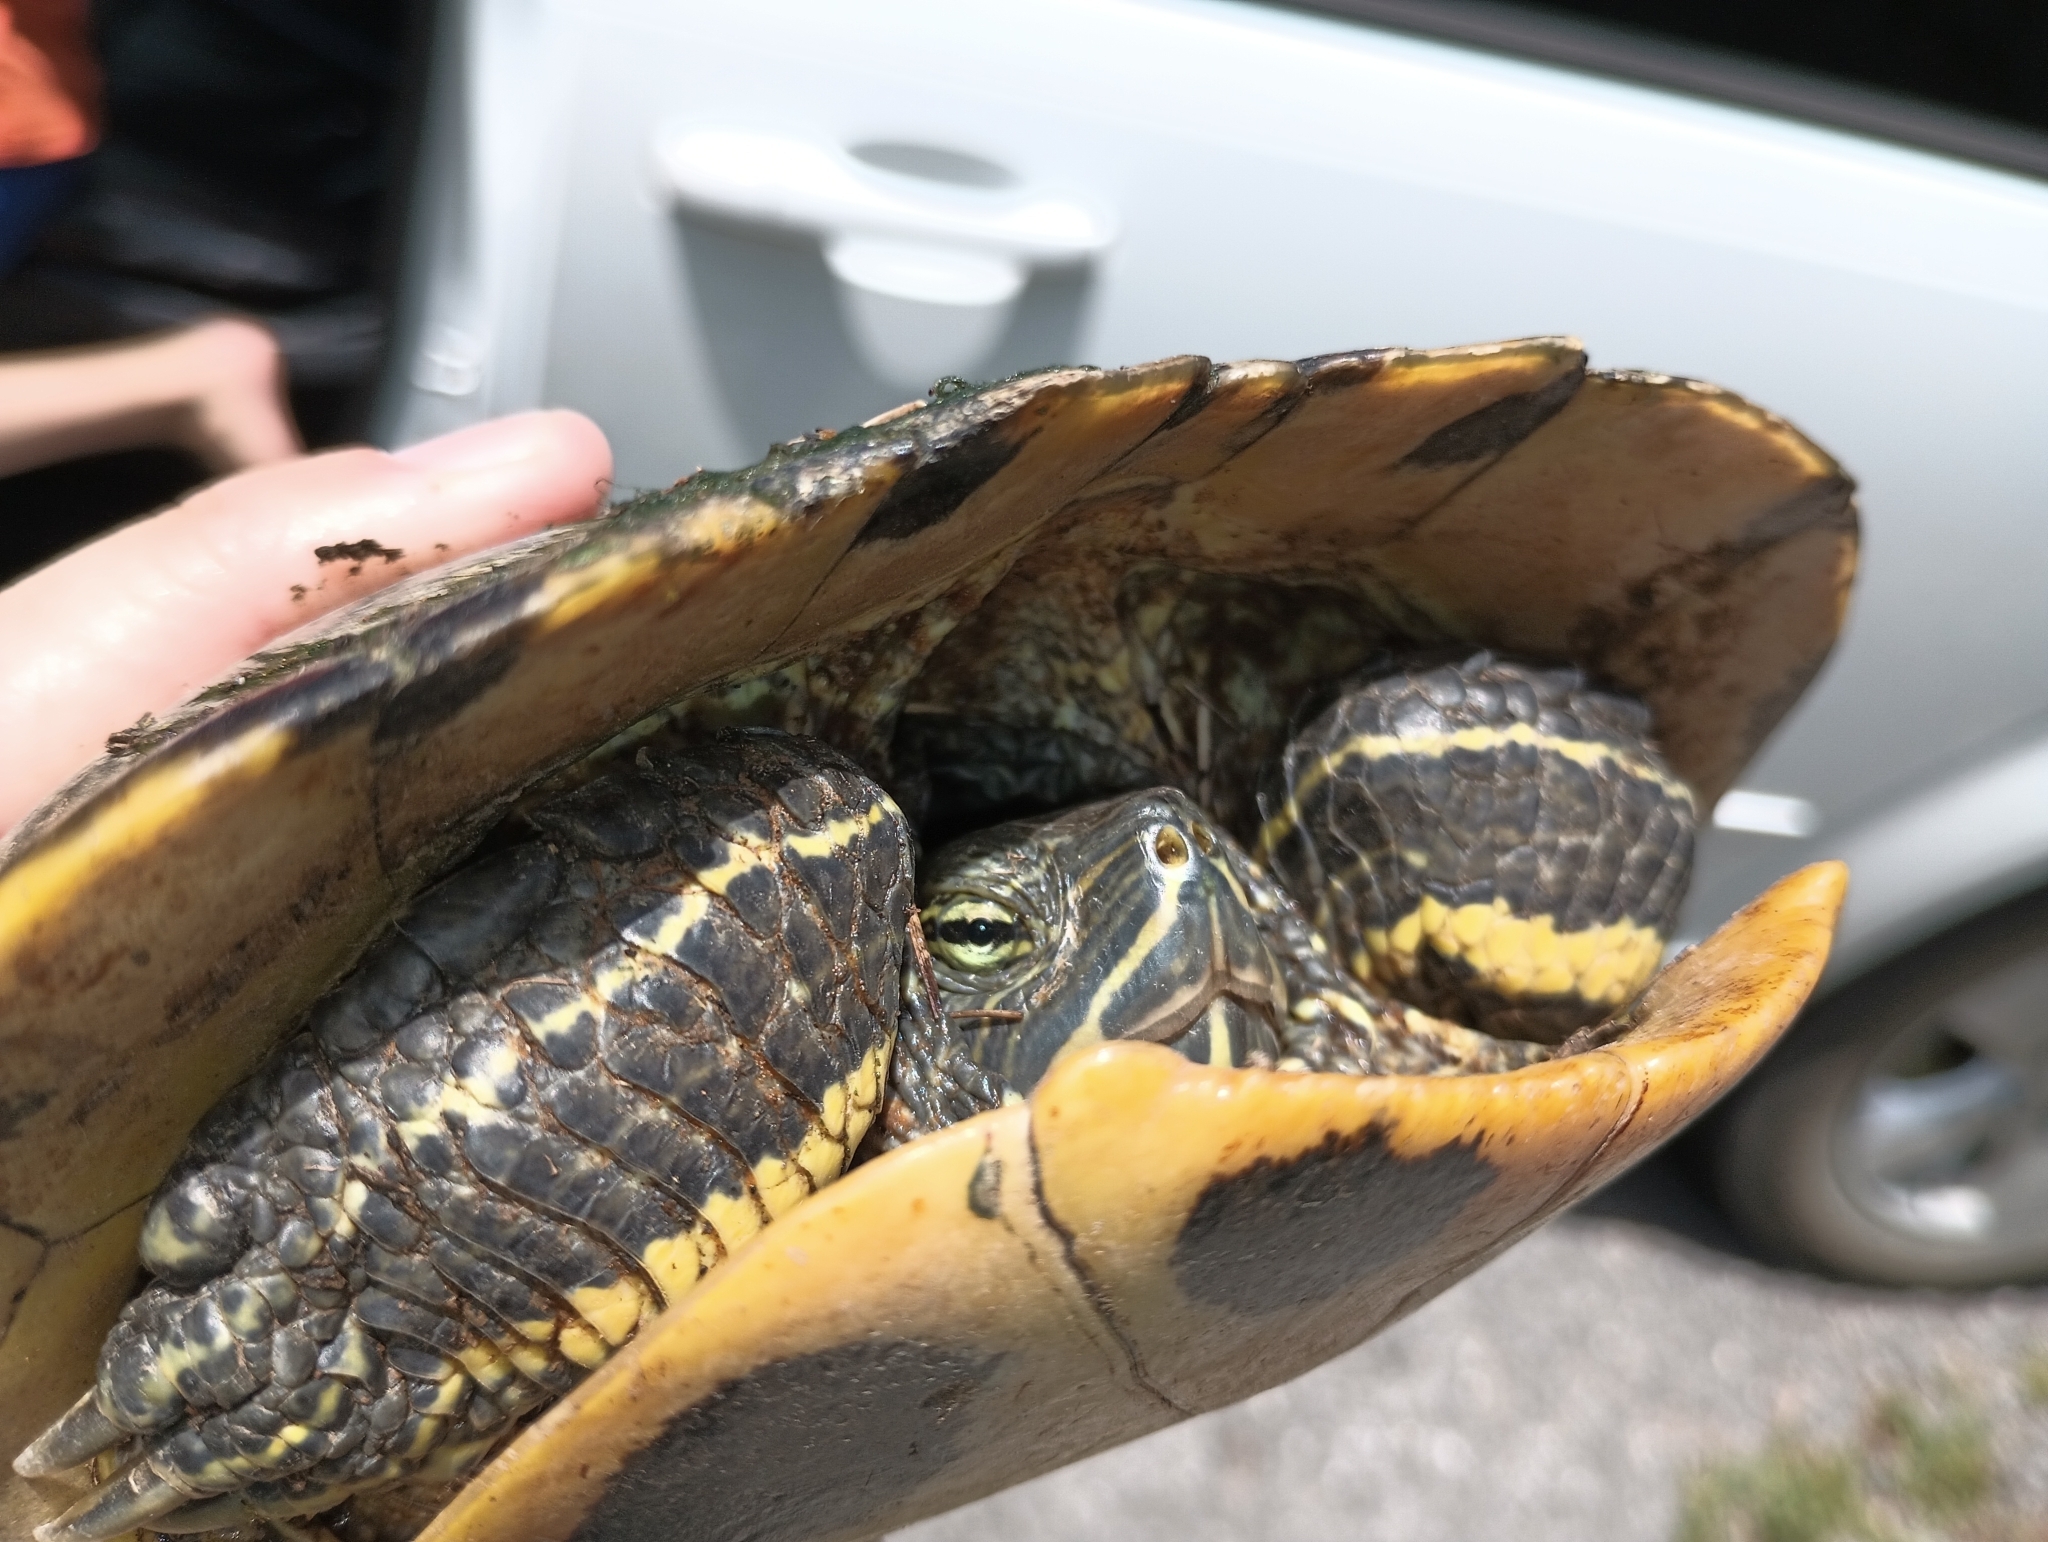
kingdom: Animalia
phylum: Chordata
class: Testudines
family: Emydidae
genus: Trachemys
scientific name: Trachemys scripta
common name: Slider
